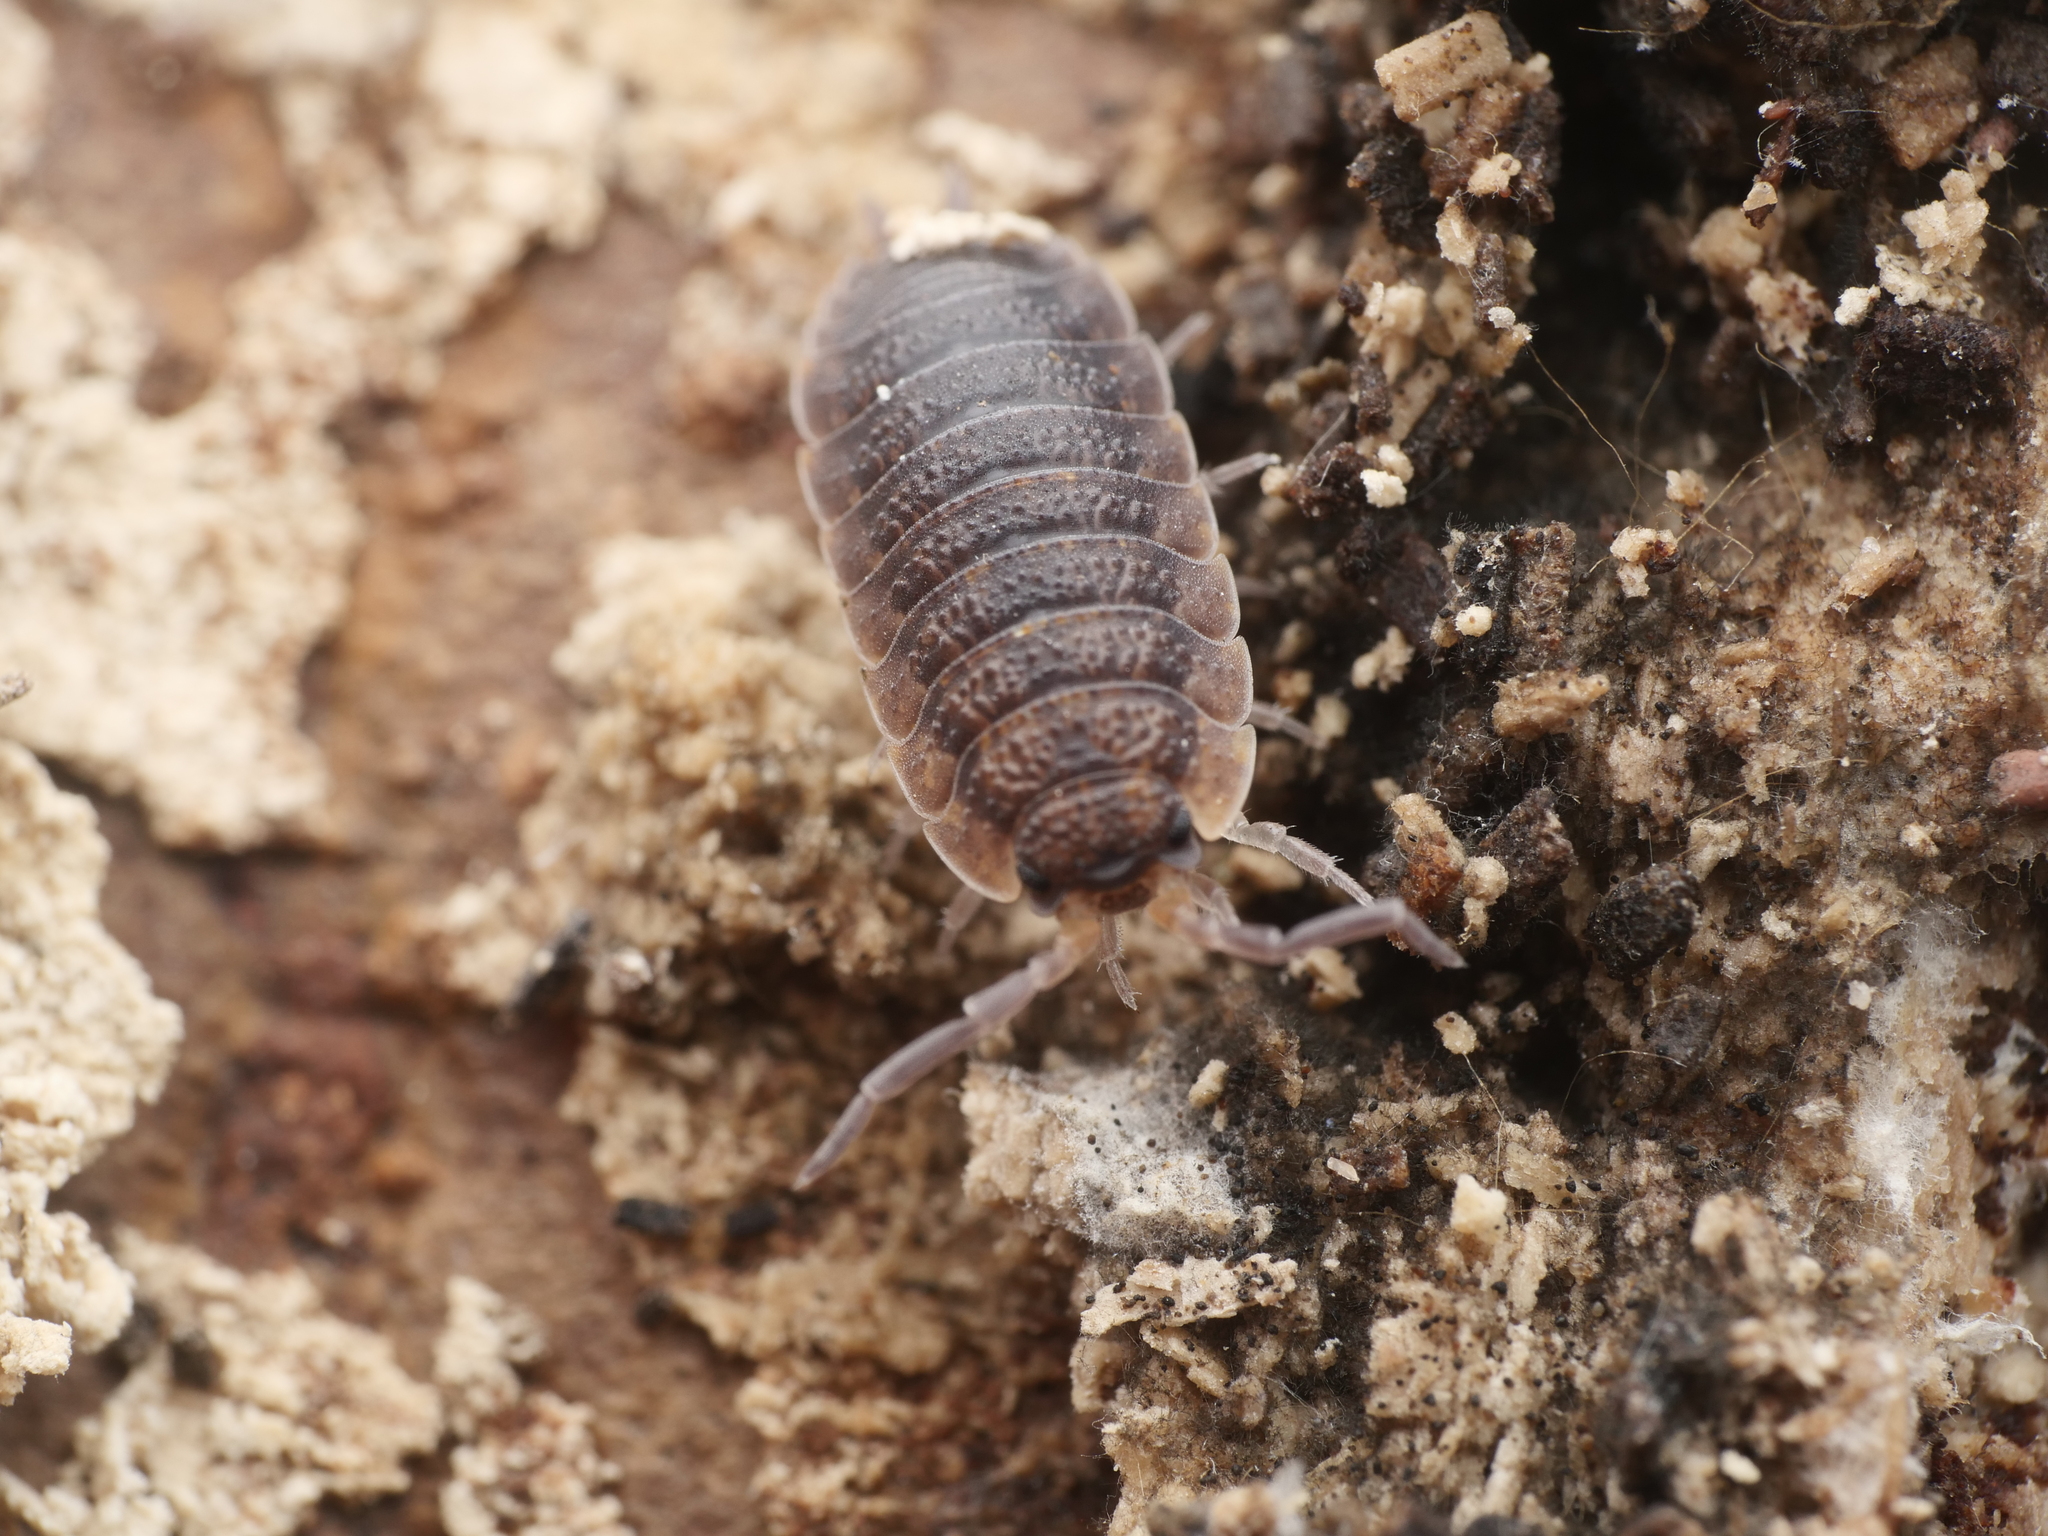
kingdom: Animalia
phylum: Arthropoda
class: Malacostraca
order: Isopoda
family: Porcellionidae
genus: Porcellio
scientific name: Porcellio scaber
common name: Common rough woodlouse
